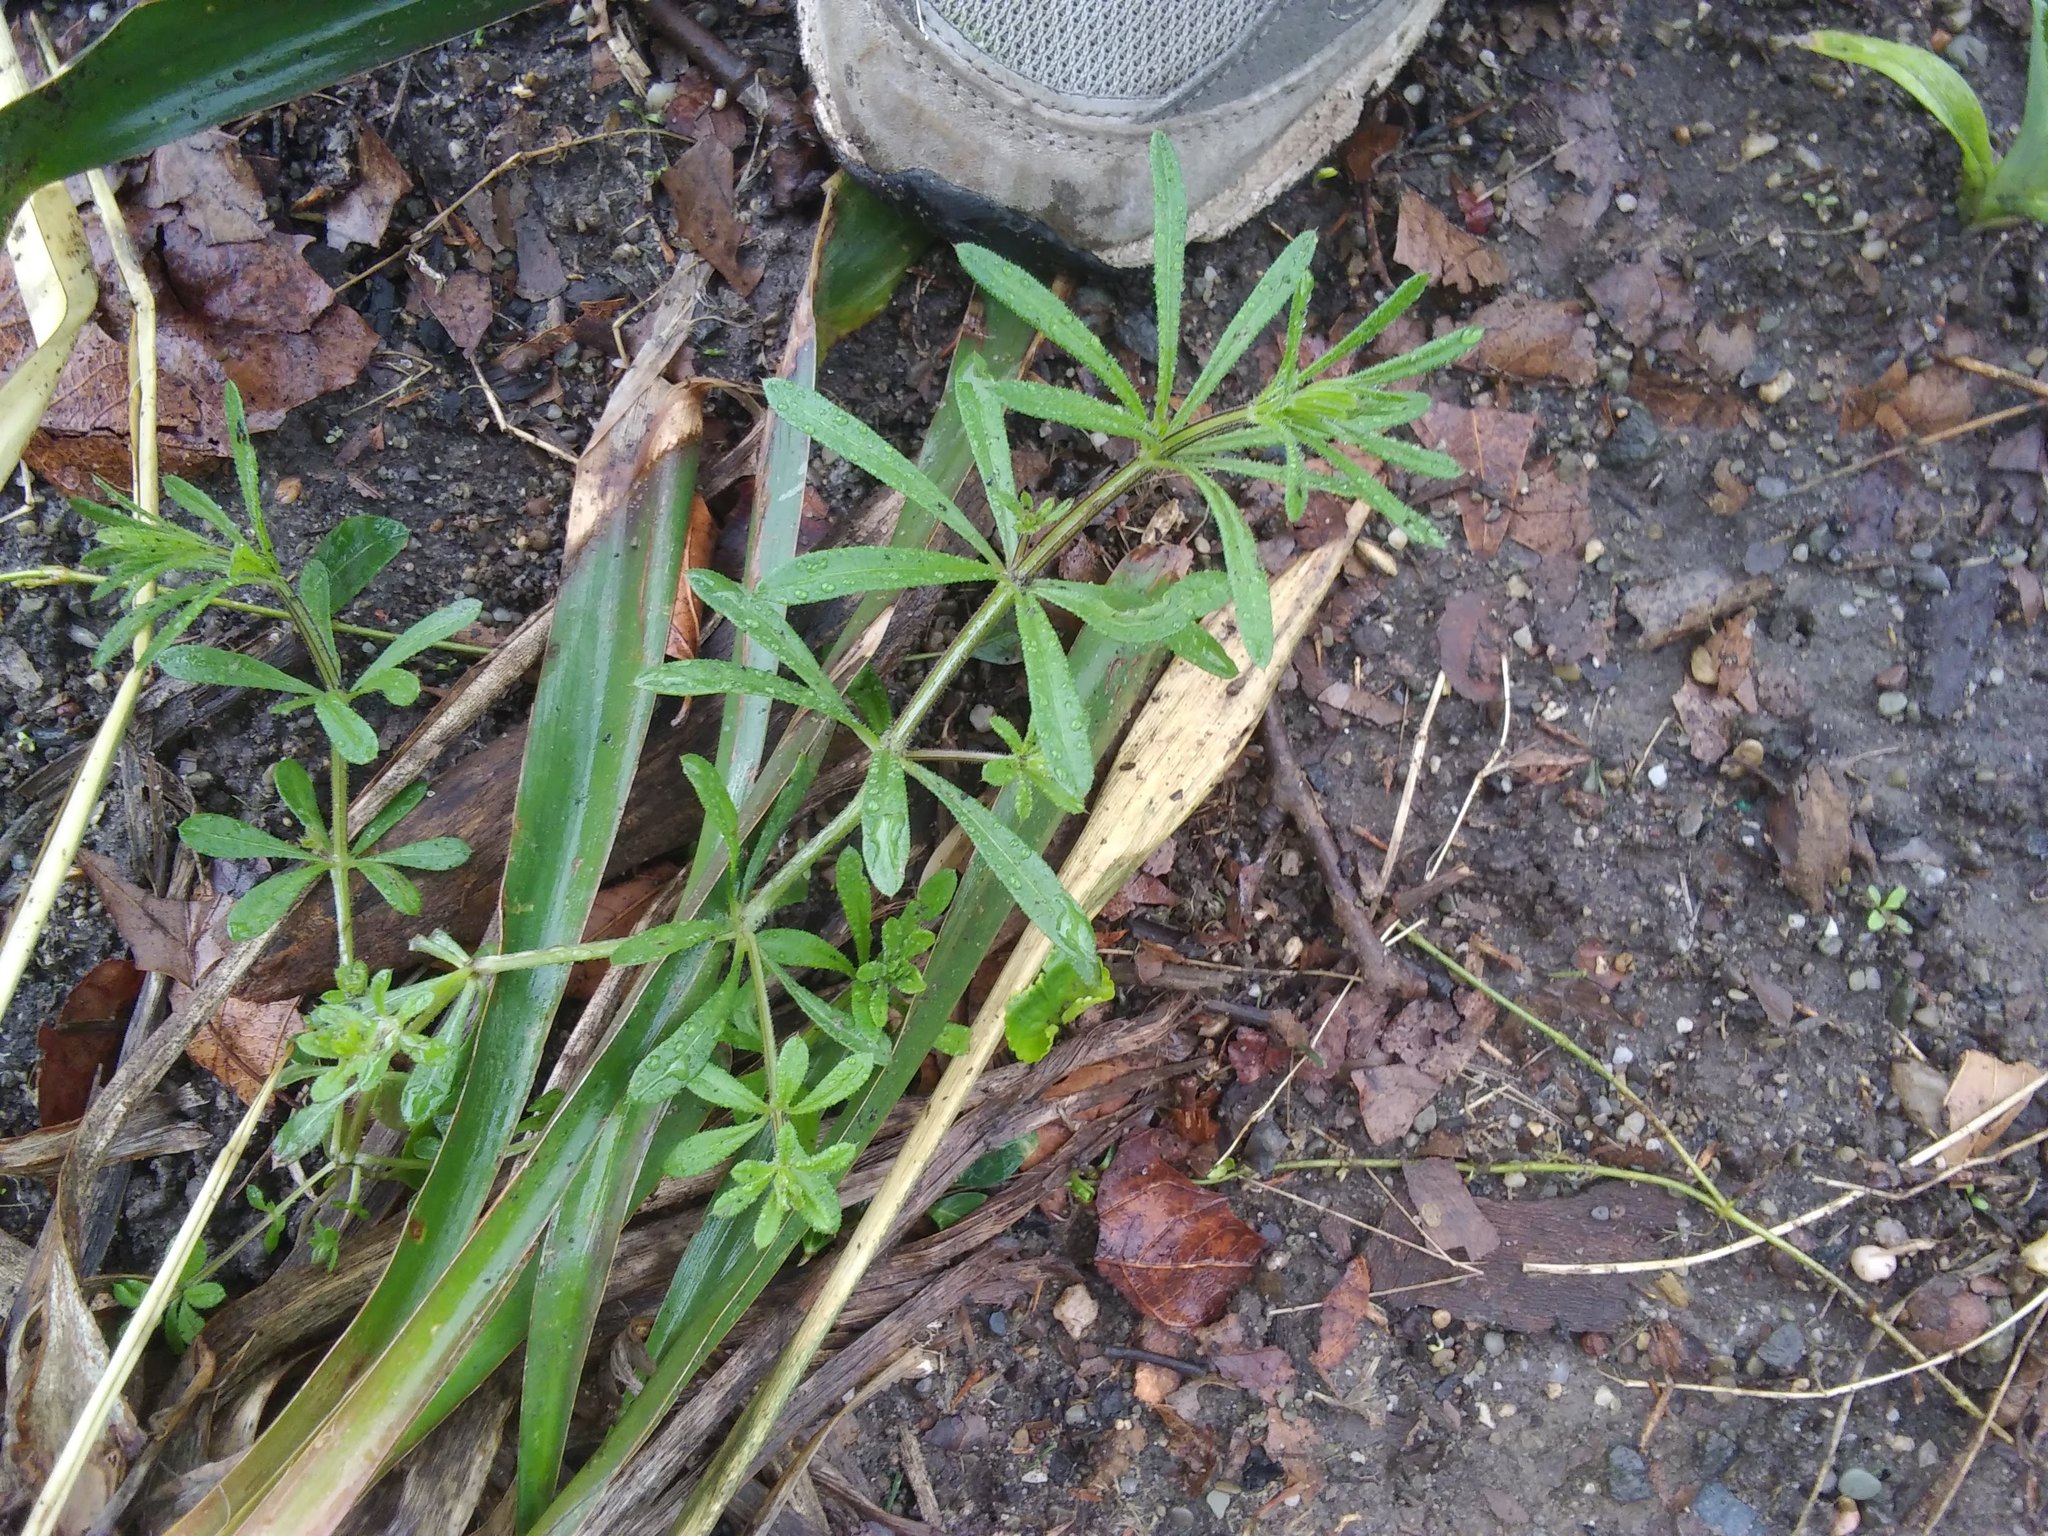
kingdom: Plantae
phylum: Tracheophyta
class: Magnoliopsida
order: Gentianales
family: Rubiaceae
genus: Galium
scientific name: Galium aparine
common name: Cleavers
